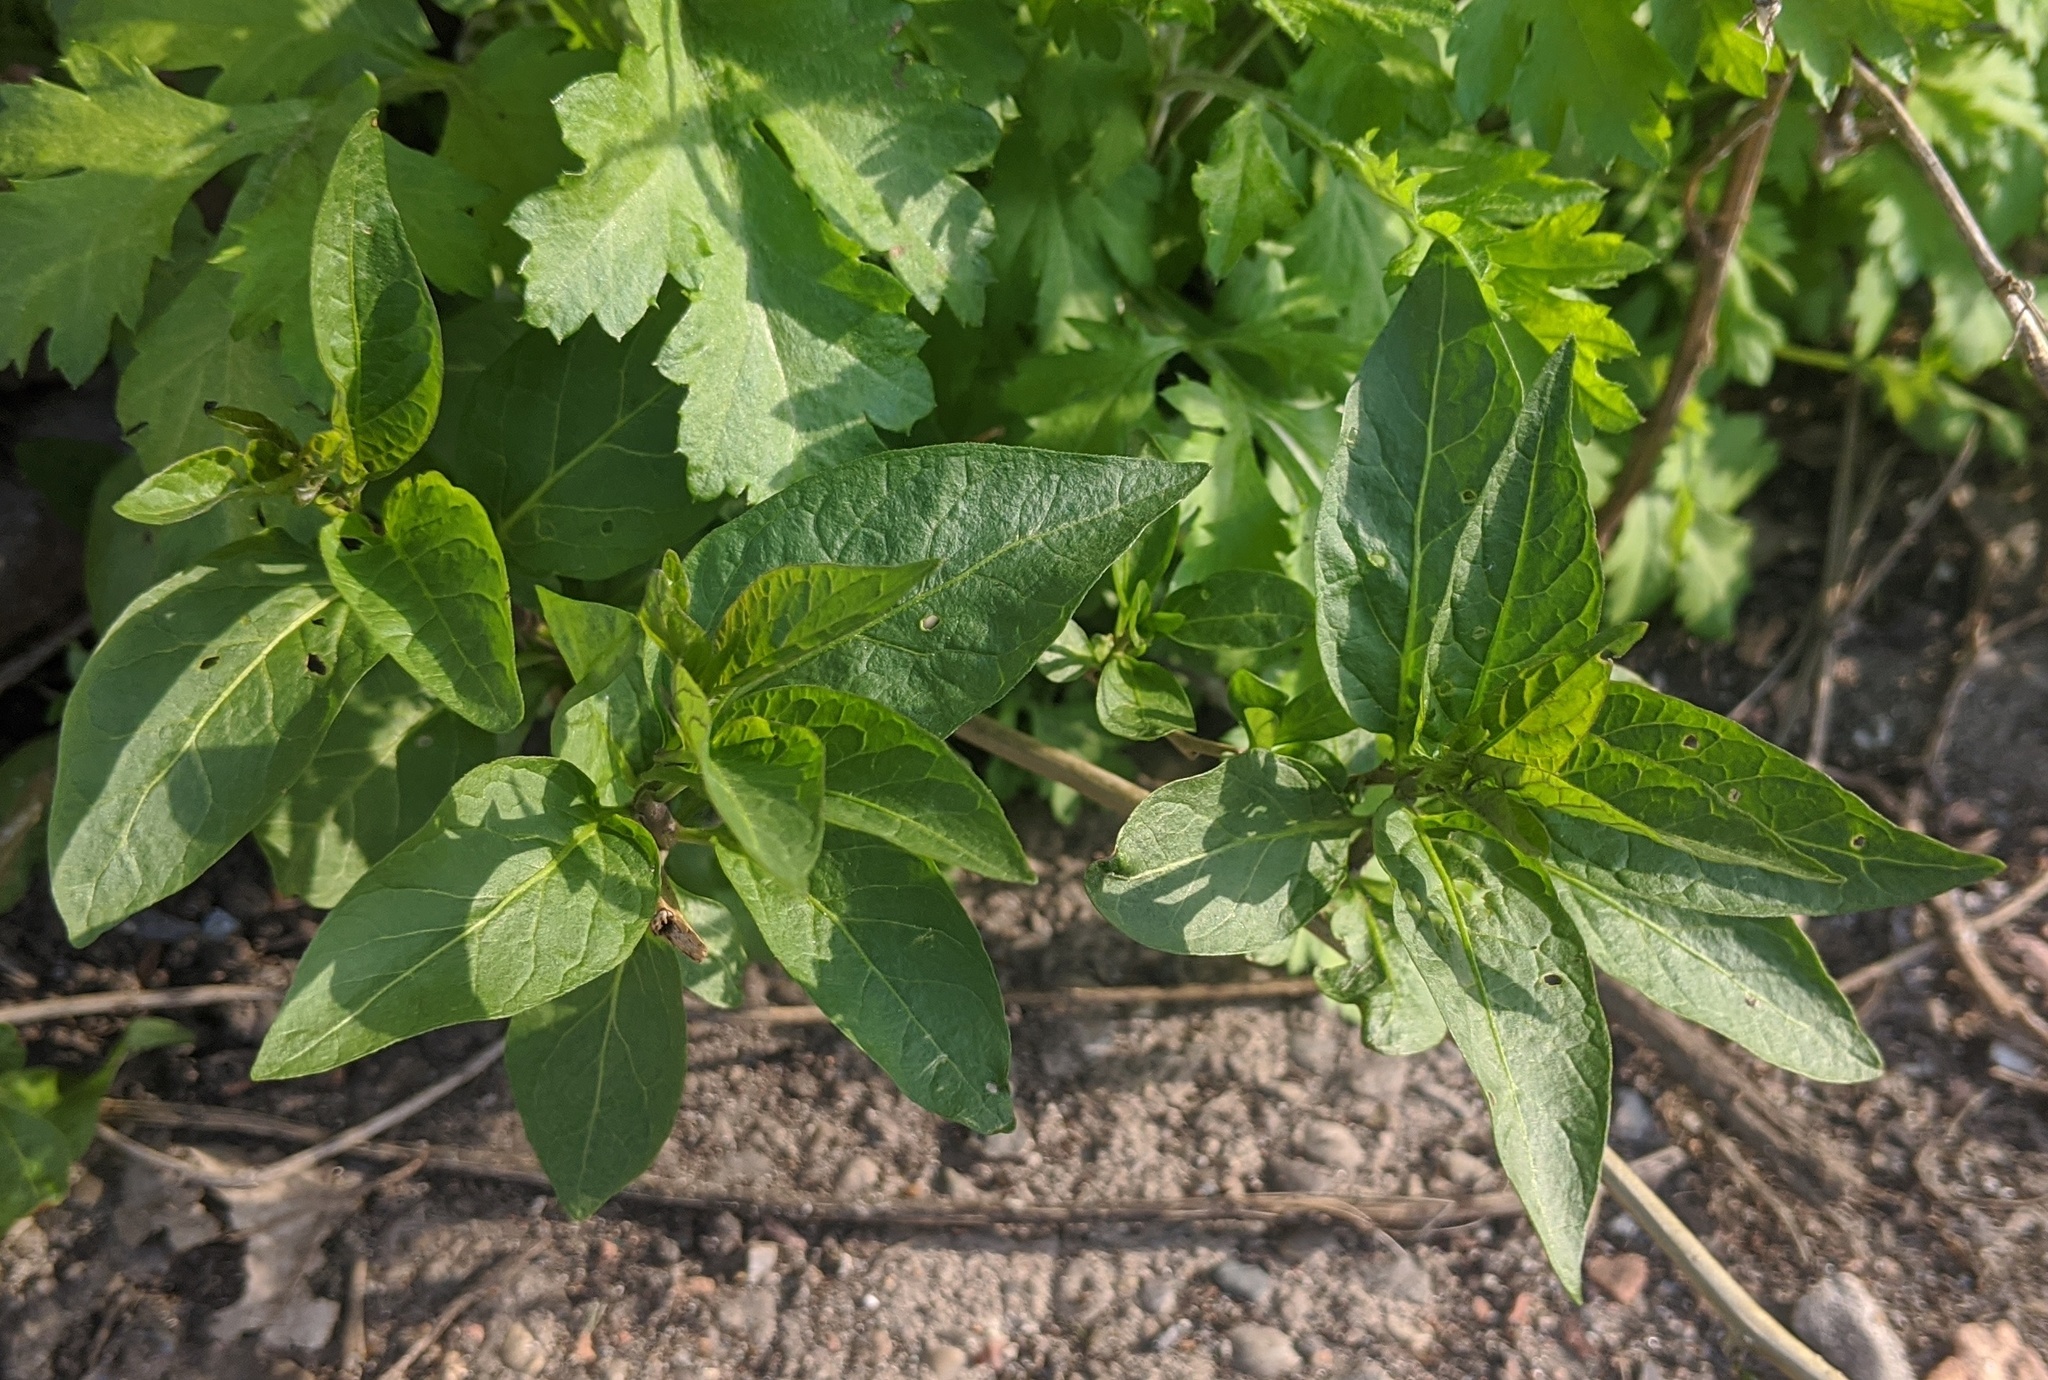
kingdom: Plantae
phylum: Tracheophyta
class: Magnoliopsida
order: Solanales
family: Solanaceae
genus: Solanum
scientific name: Solanum dulcamara
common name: Climbing nightshade
